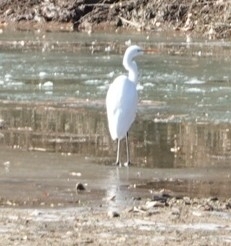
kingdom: Animalia
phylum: Chordata
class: Aves
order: Pelecaniformes
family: Ardeidae
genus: Ardea
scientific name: Ardea alba
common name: Great egret
